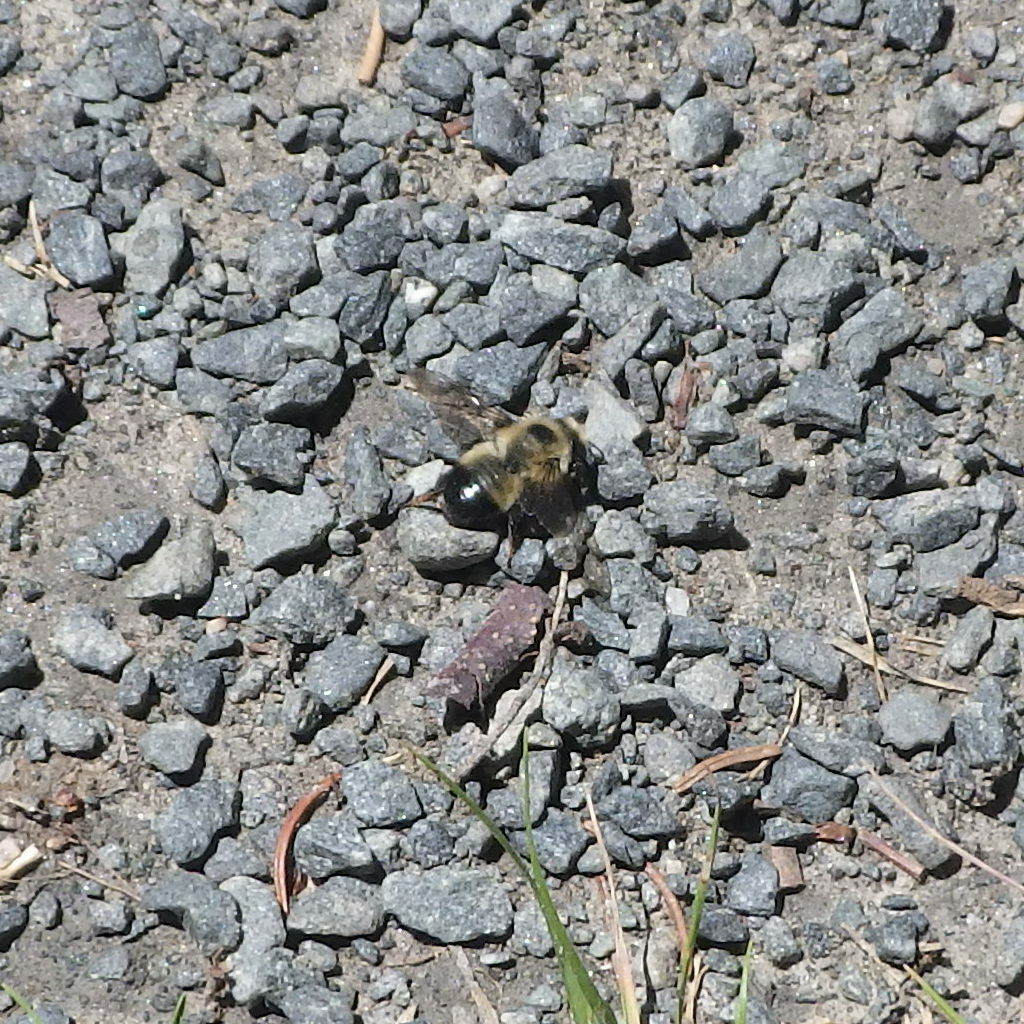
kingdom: Animalia
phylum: Arthropoda
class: Insecta
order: Hymenoptera
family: Megachilidae
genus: Megachile
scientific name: Megachile melanophaea
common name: Black-and-gray leafcutter bee
